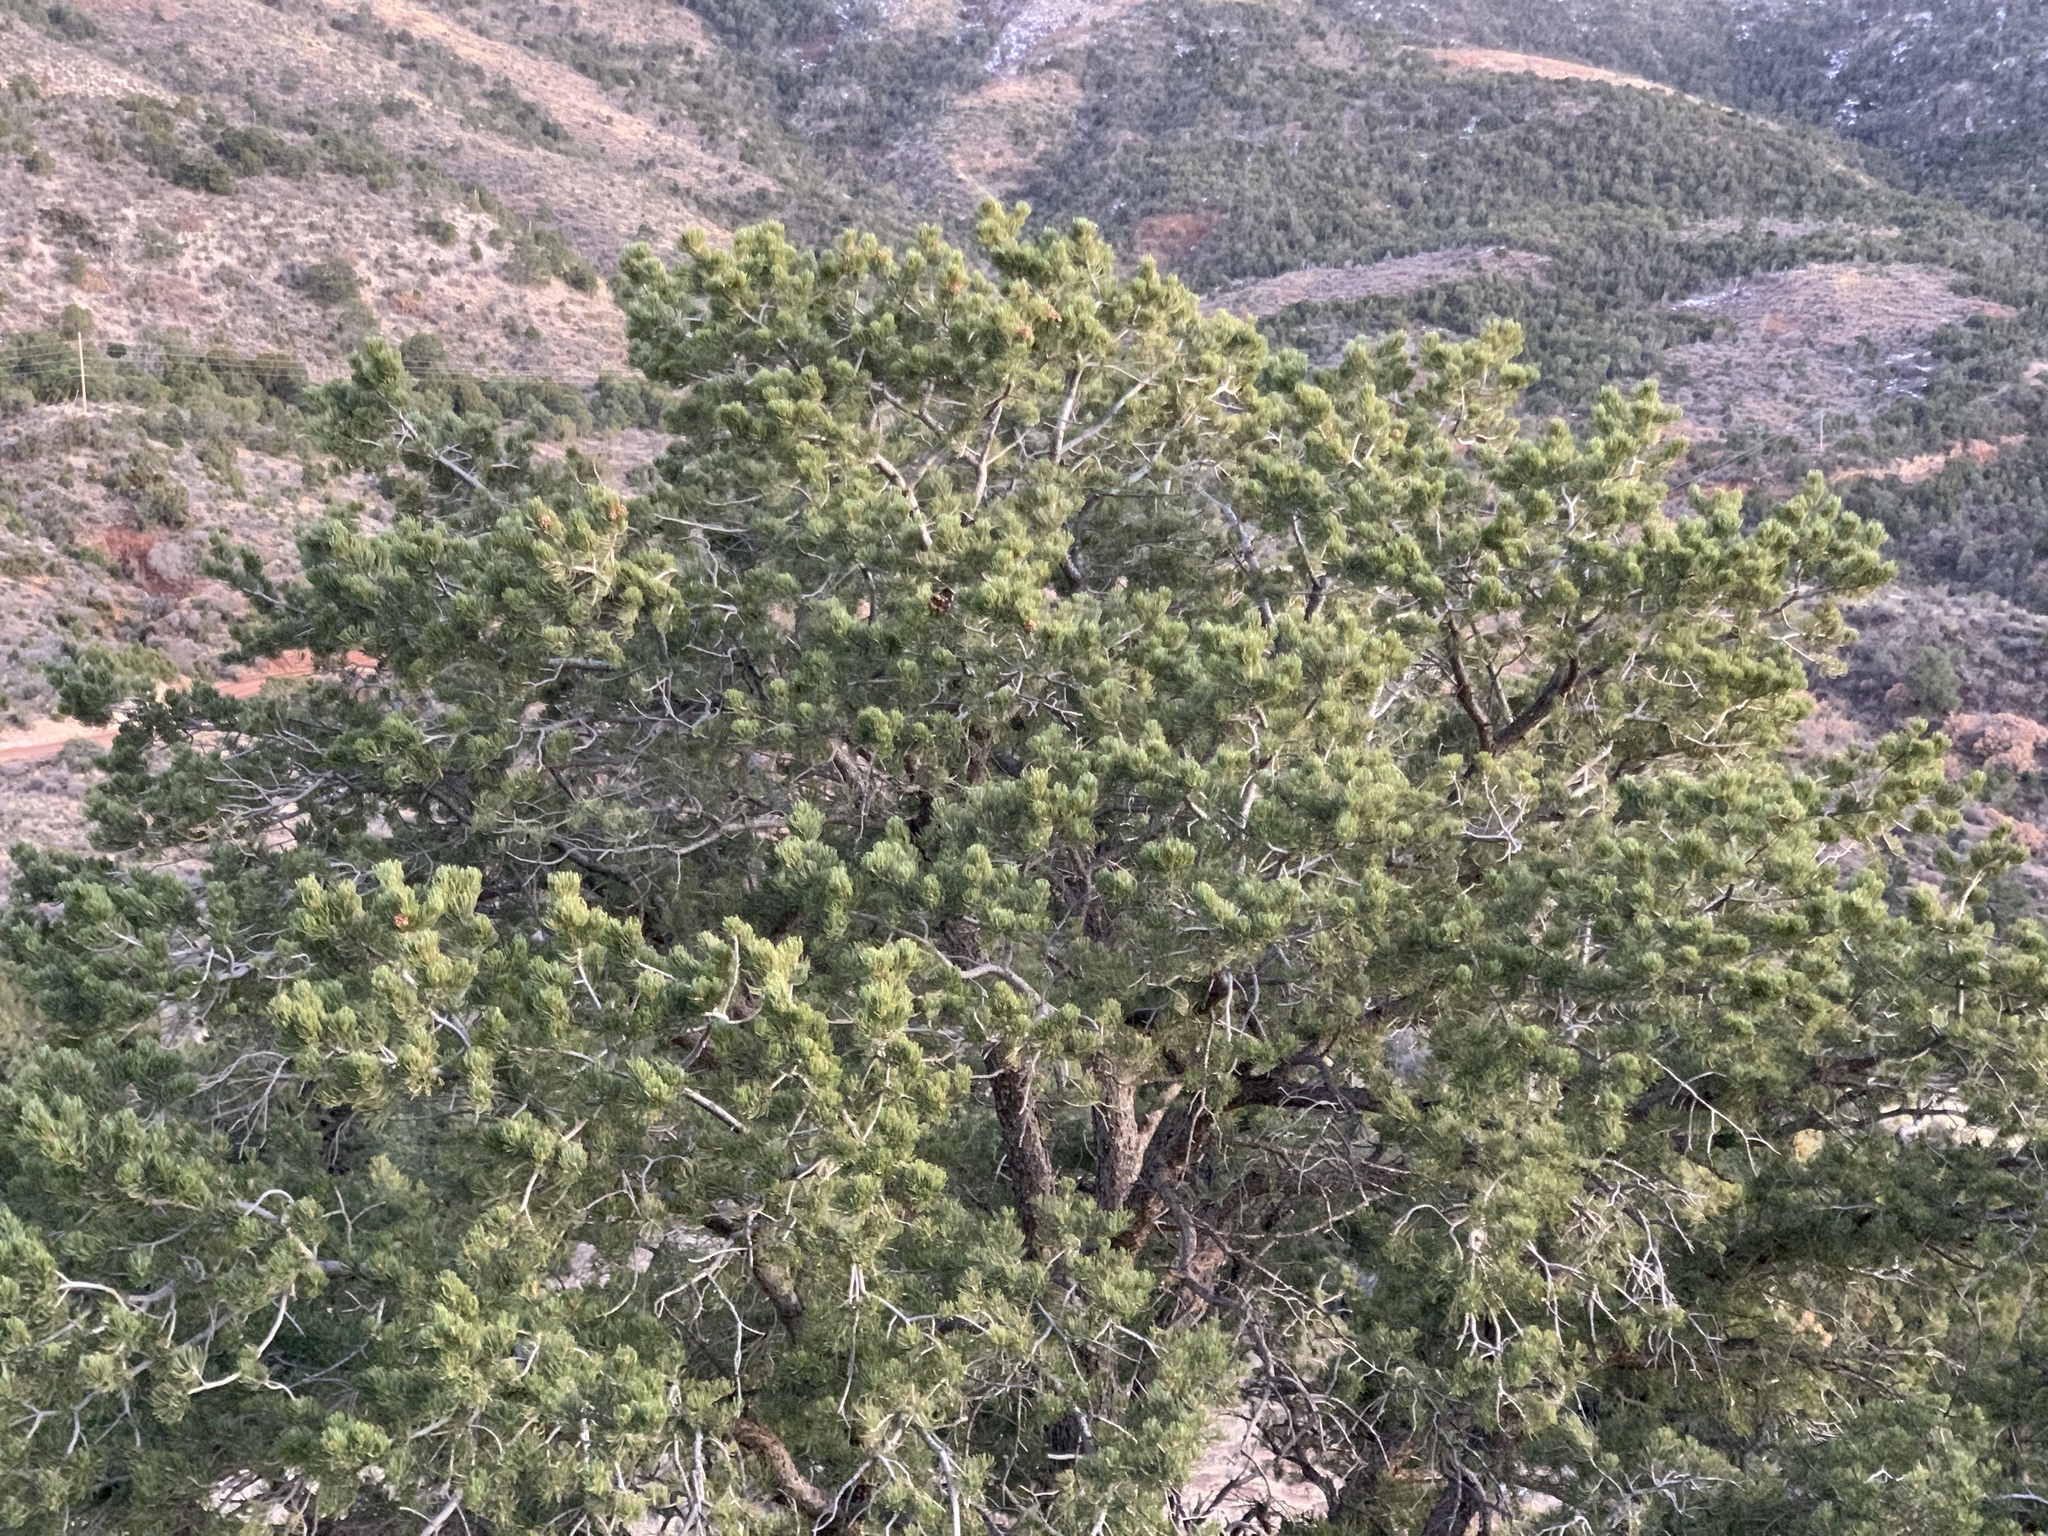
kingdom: Plantae
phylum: Tracheophyta
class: Pinopsida
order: Pinales
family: Pinaceae
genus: Pinus
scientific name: Pinus edulis
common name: Colorado pinyon
